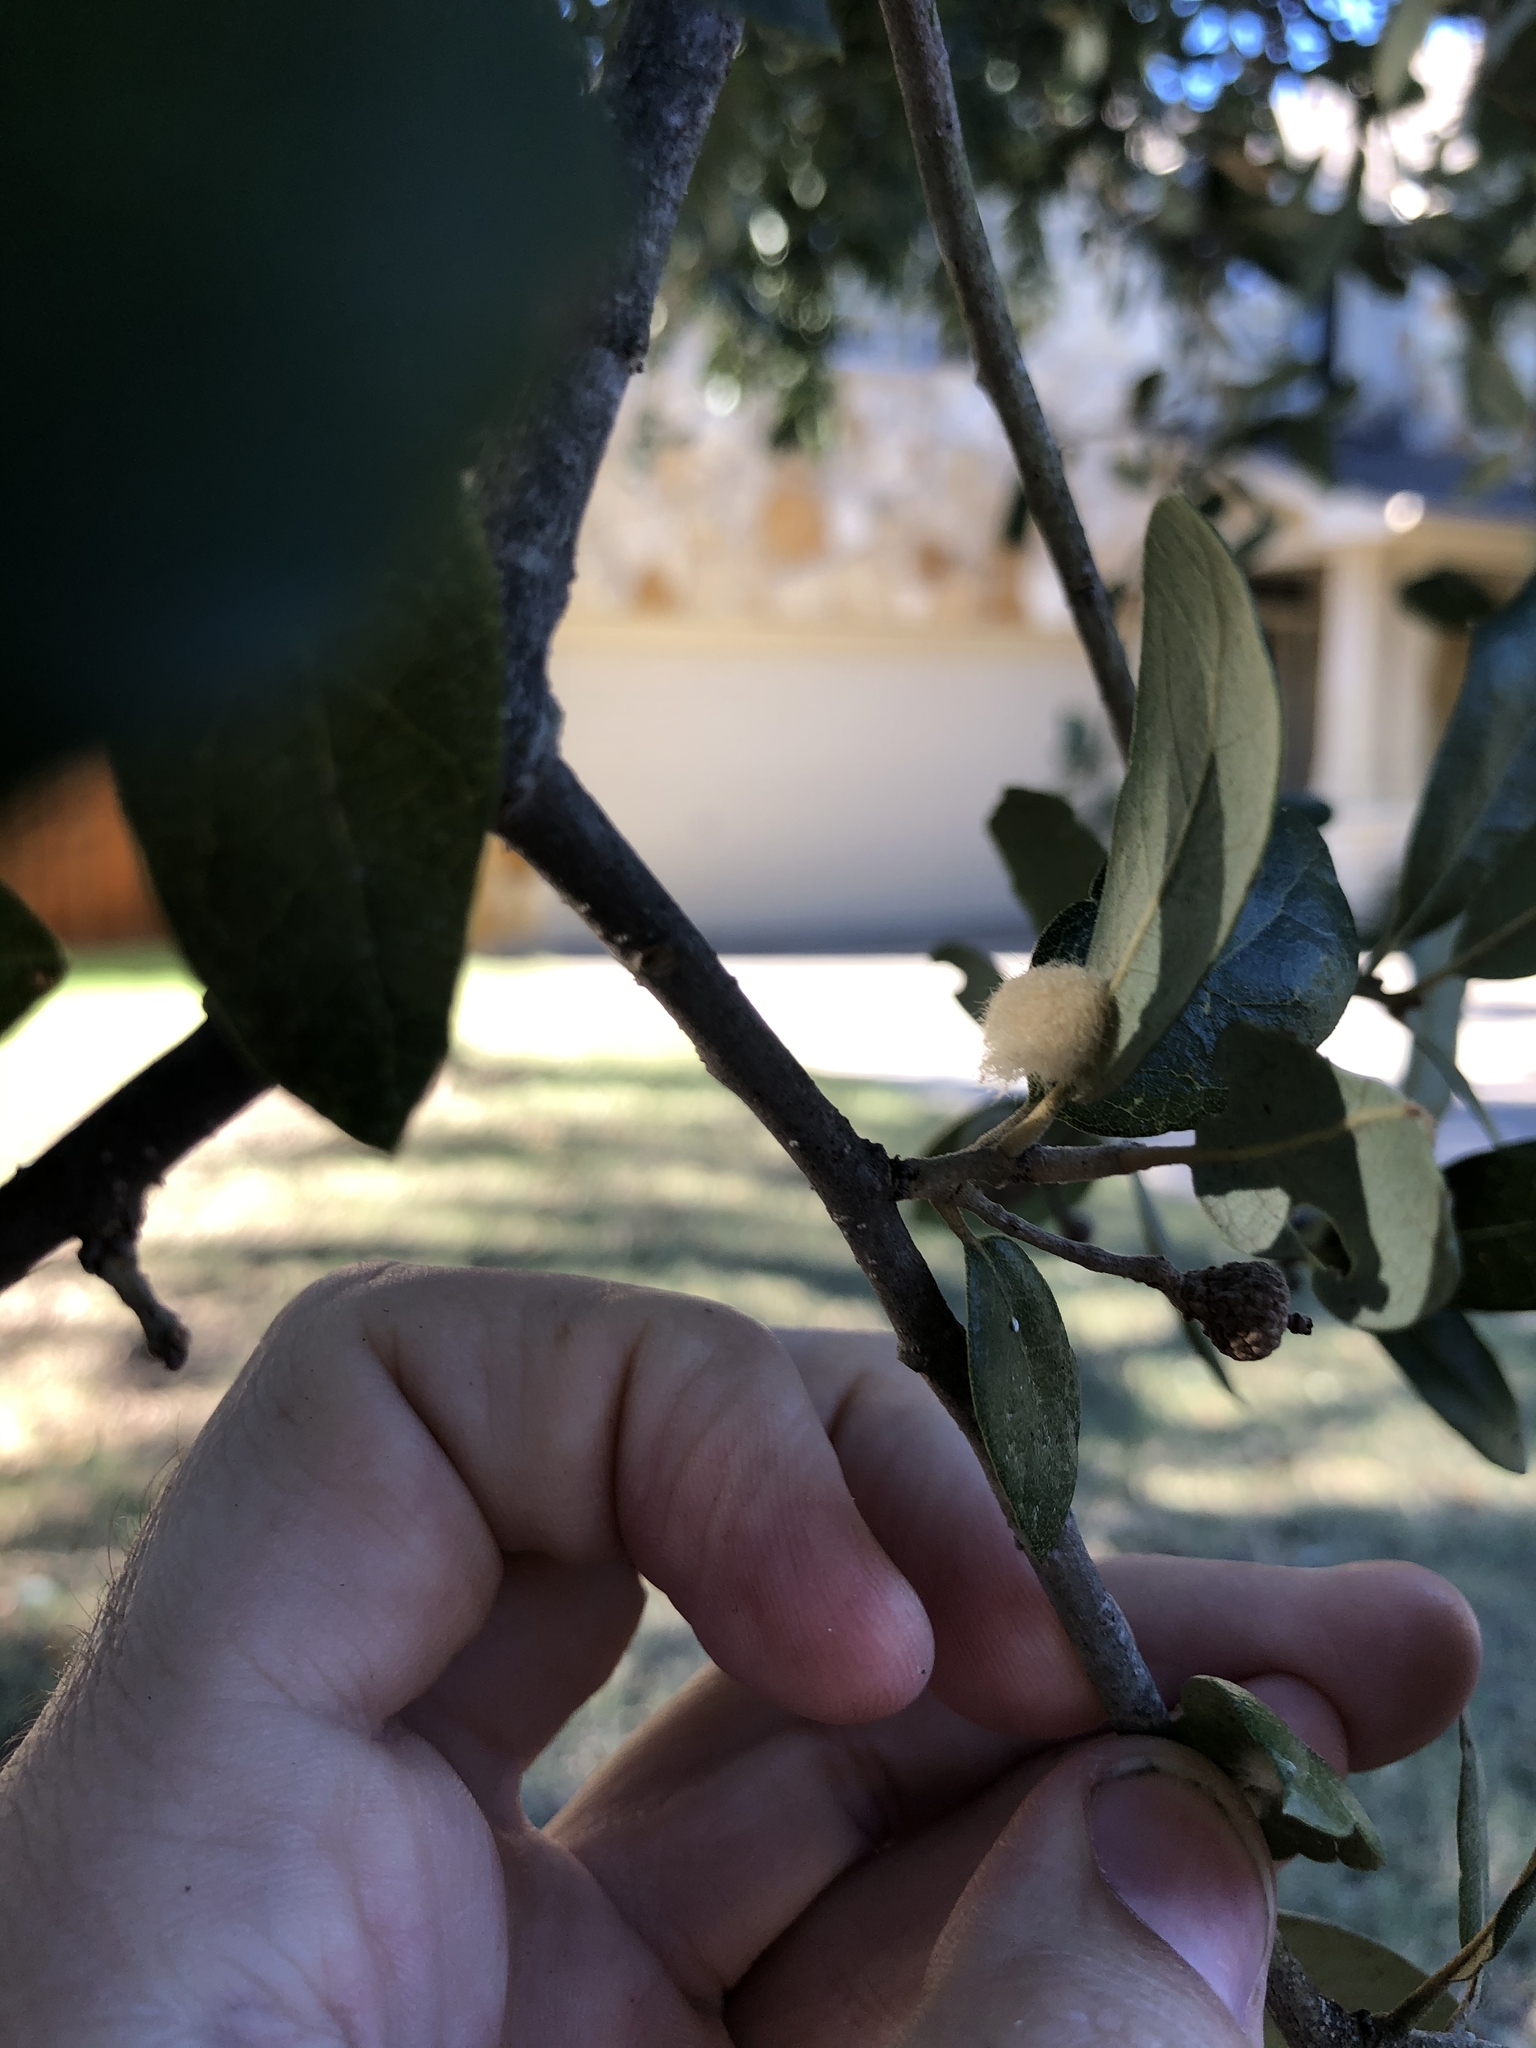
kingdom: Animalia
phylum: Arthropoda
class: Insecta
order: Hymenoptera
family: Cynipidae
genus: Andricus
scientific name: Andricus Druon quercuslanigerum
